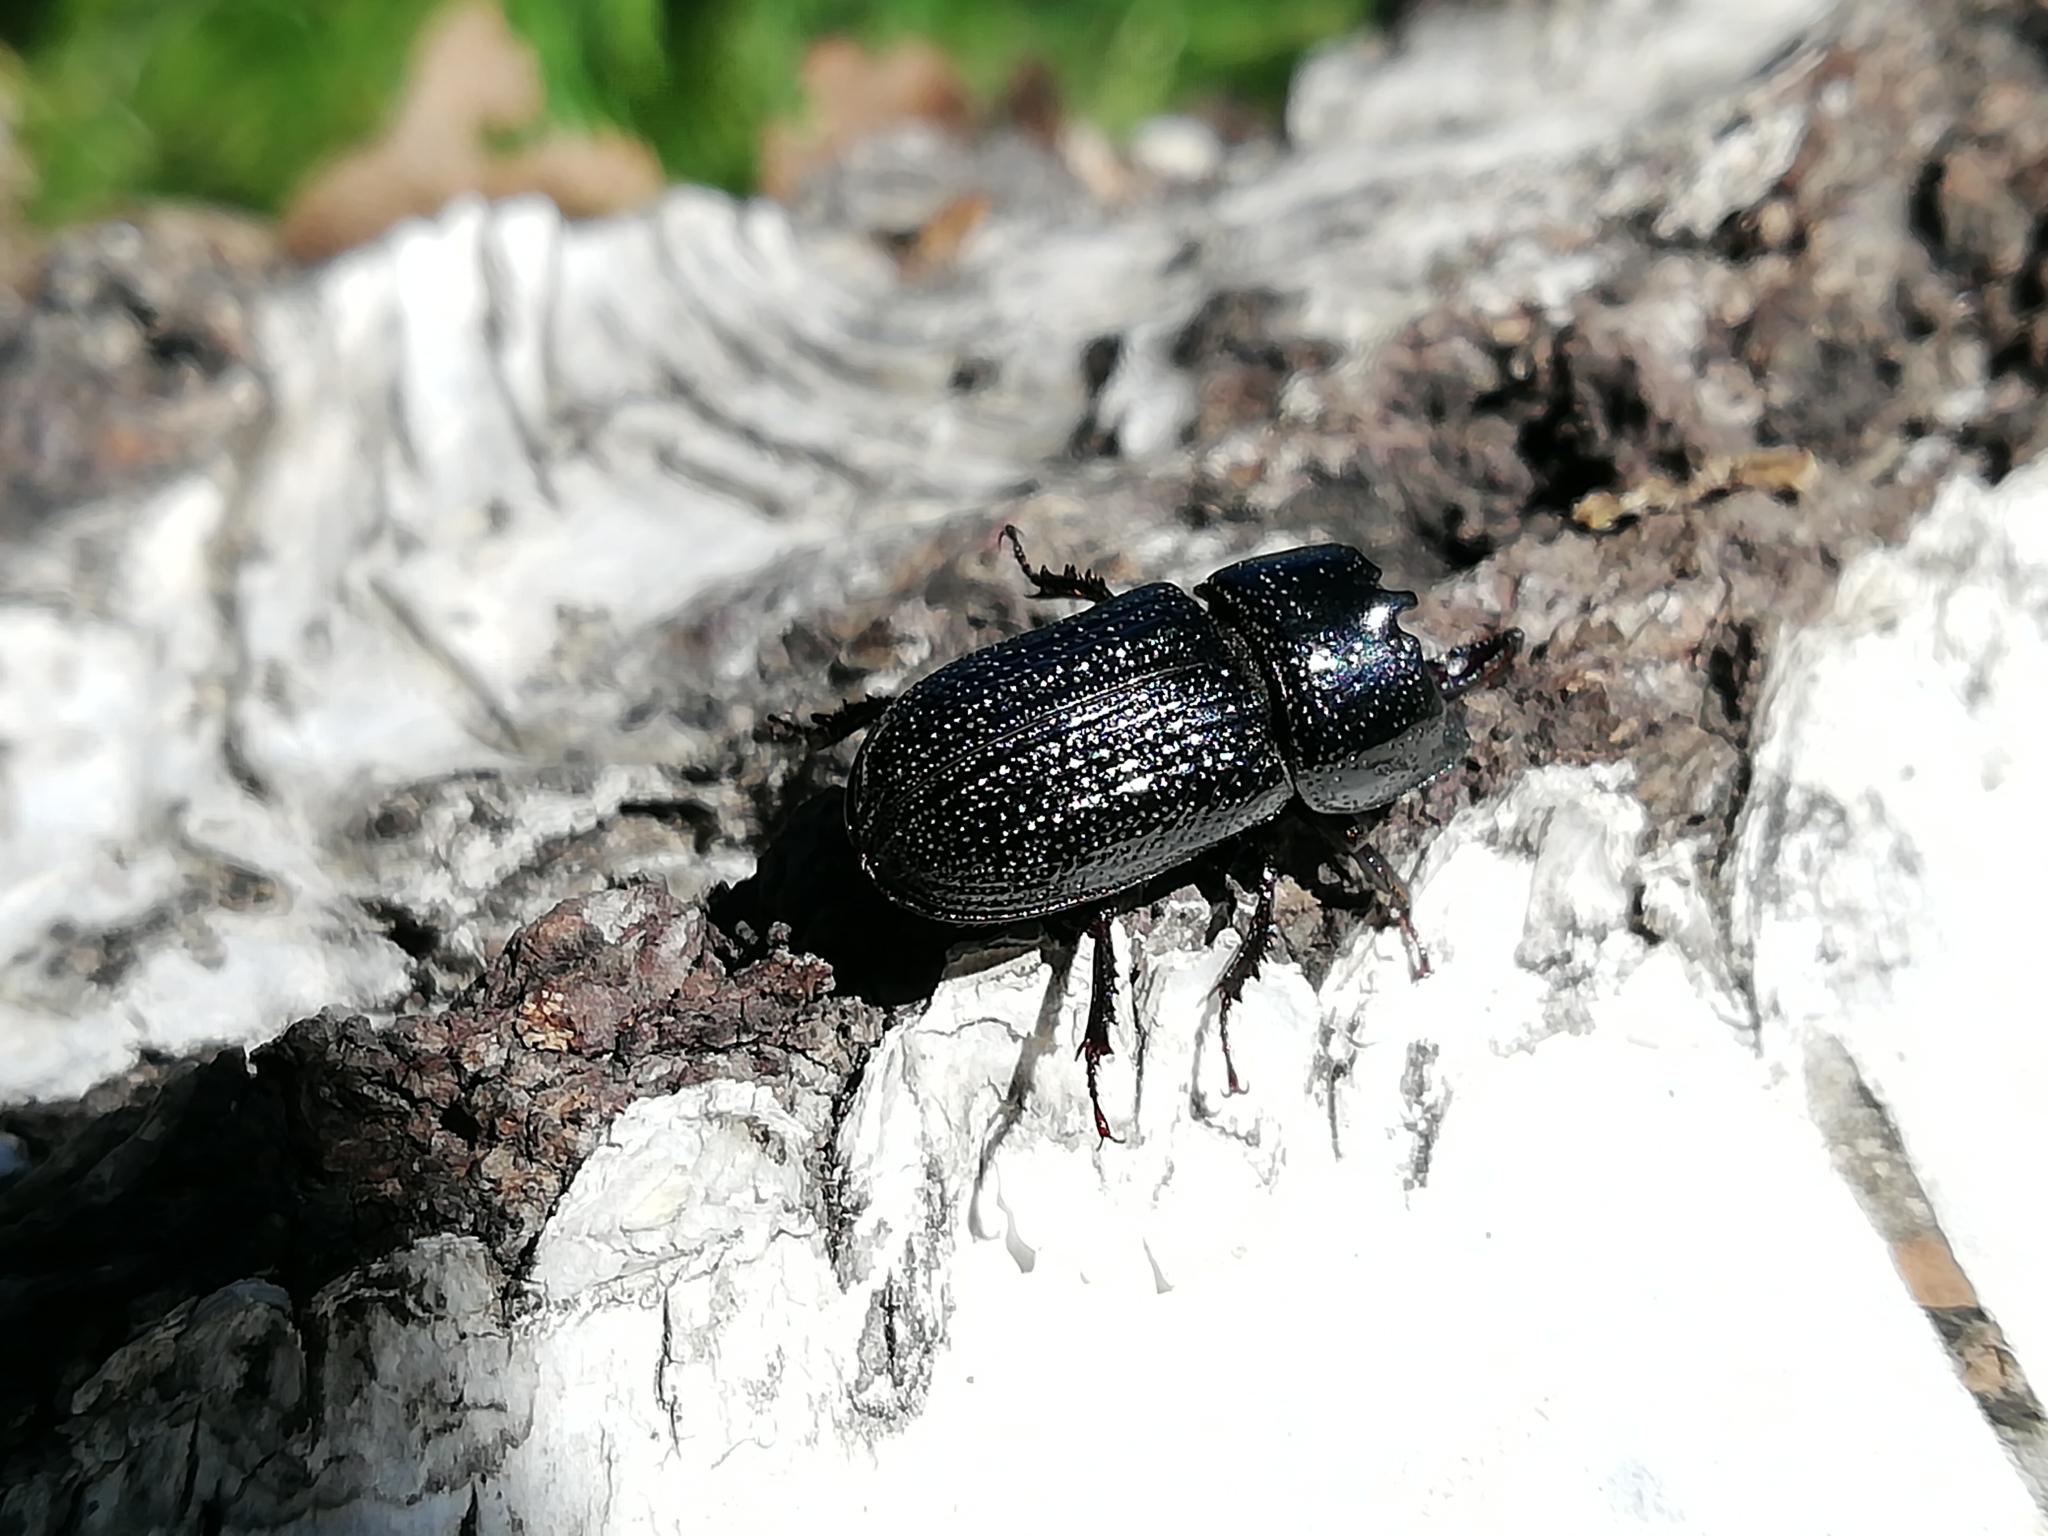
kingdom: Animalia
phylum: Arthropoda
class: Insecta
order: Coleoptera
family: Lucanidae
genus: Sinodendron
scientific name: Sinodendron cylindricum
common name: Rhinoceros beetle
